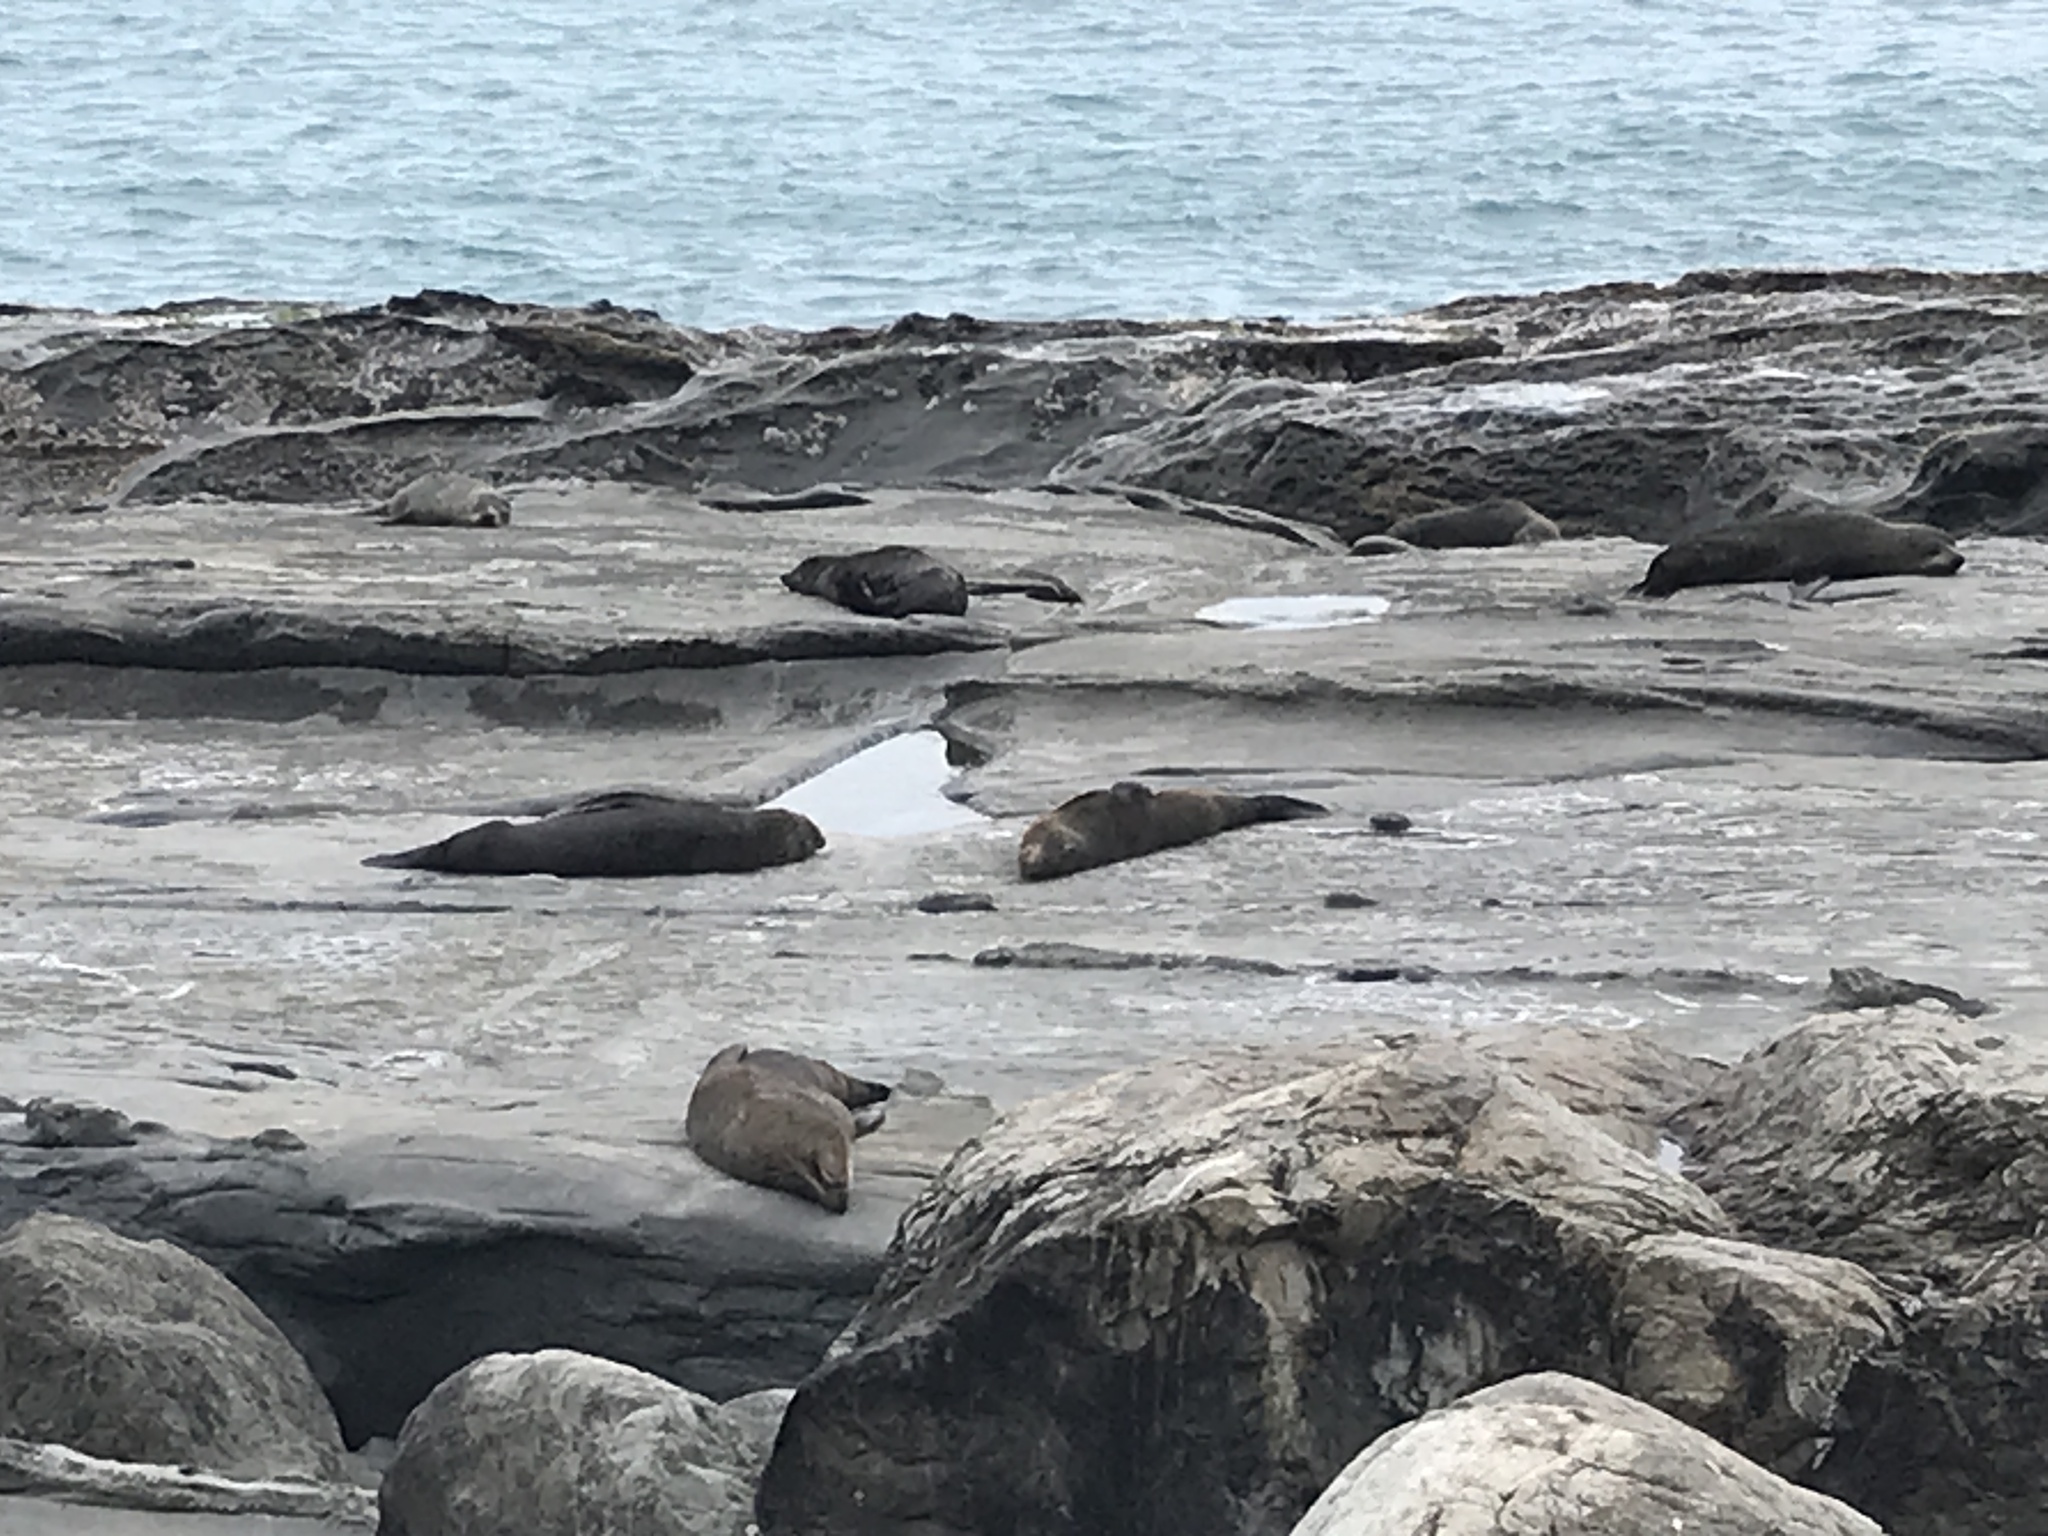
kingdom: Animalia
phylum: Chordata
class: Mammalia
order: Carnivora
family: Otariidae
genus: Arctocephalus
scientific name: Arctocephalus forsteri
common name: New zealand fur seal
